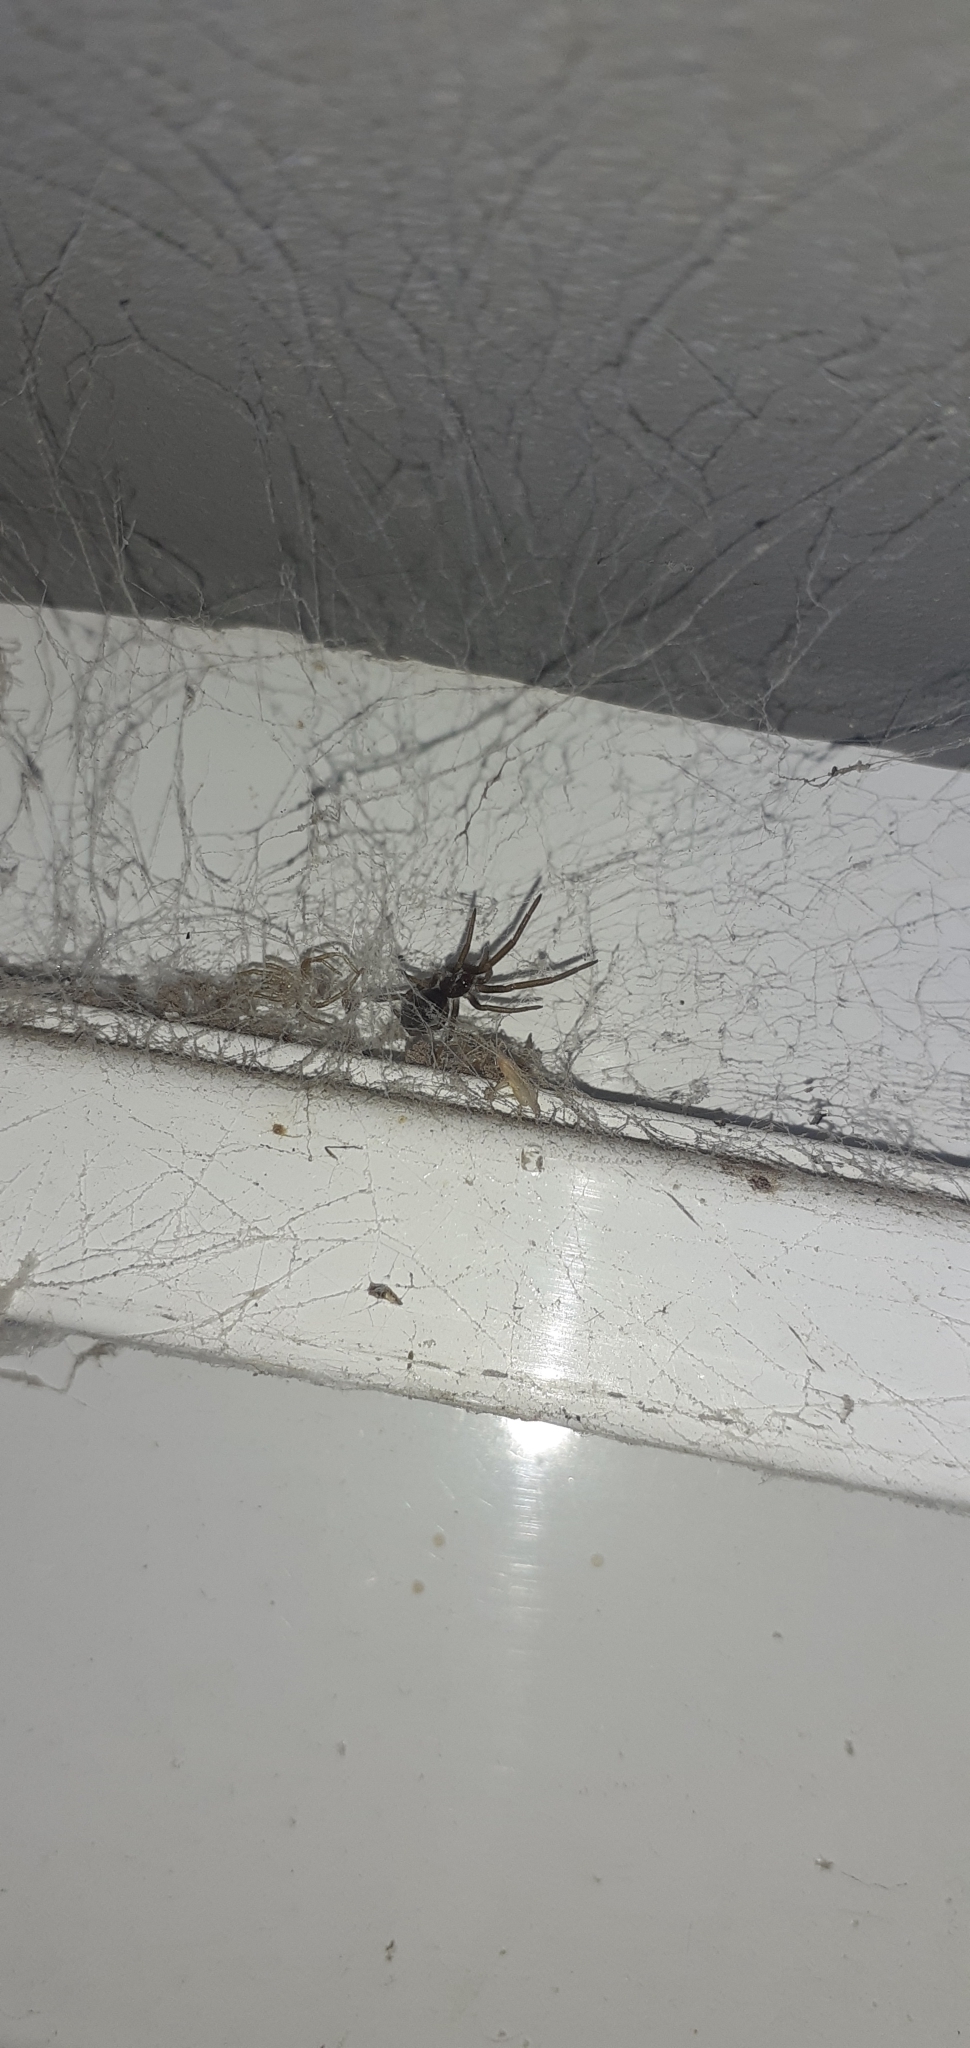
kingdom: Animalia
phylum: Arthropoda
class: Arachnida
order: Araneae
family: Filistatidae
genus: Kukulcania
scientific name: Kukulcania hibernalis
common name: Crevice weaver
